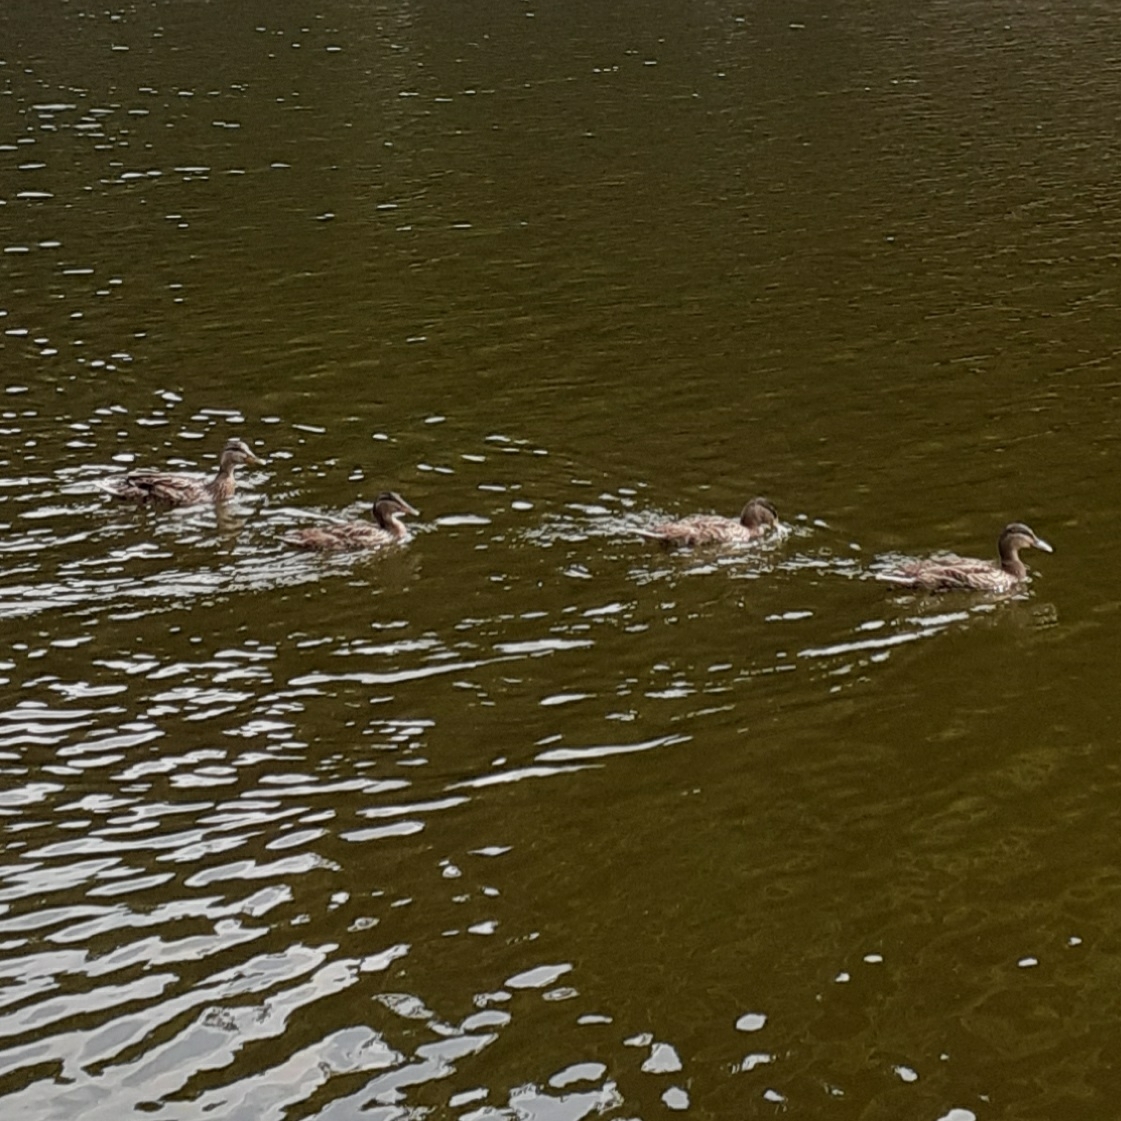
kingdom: Animalia
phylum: Chordata
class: Aves
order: Anseriformes
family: Anatidae
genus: Anas
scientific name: Anas platyrhynchos
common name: Mallard
